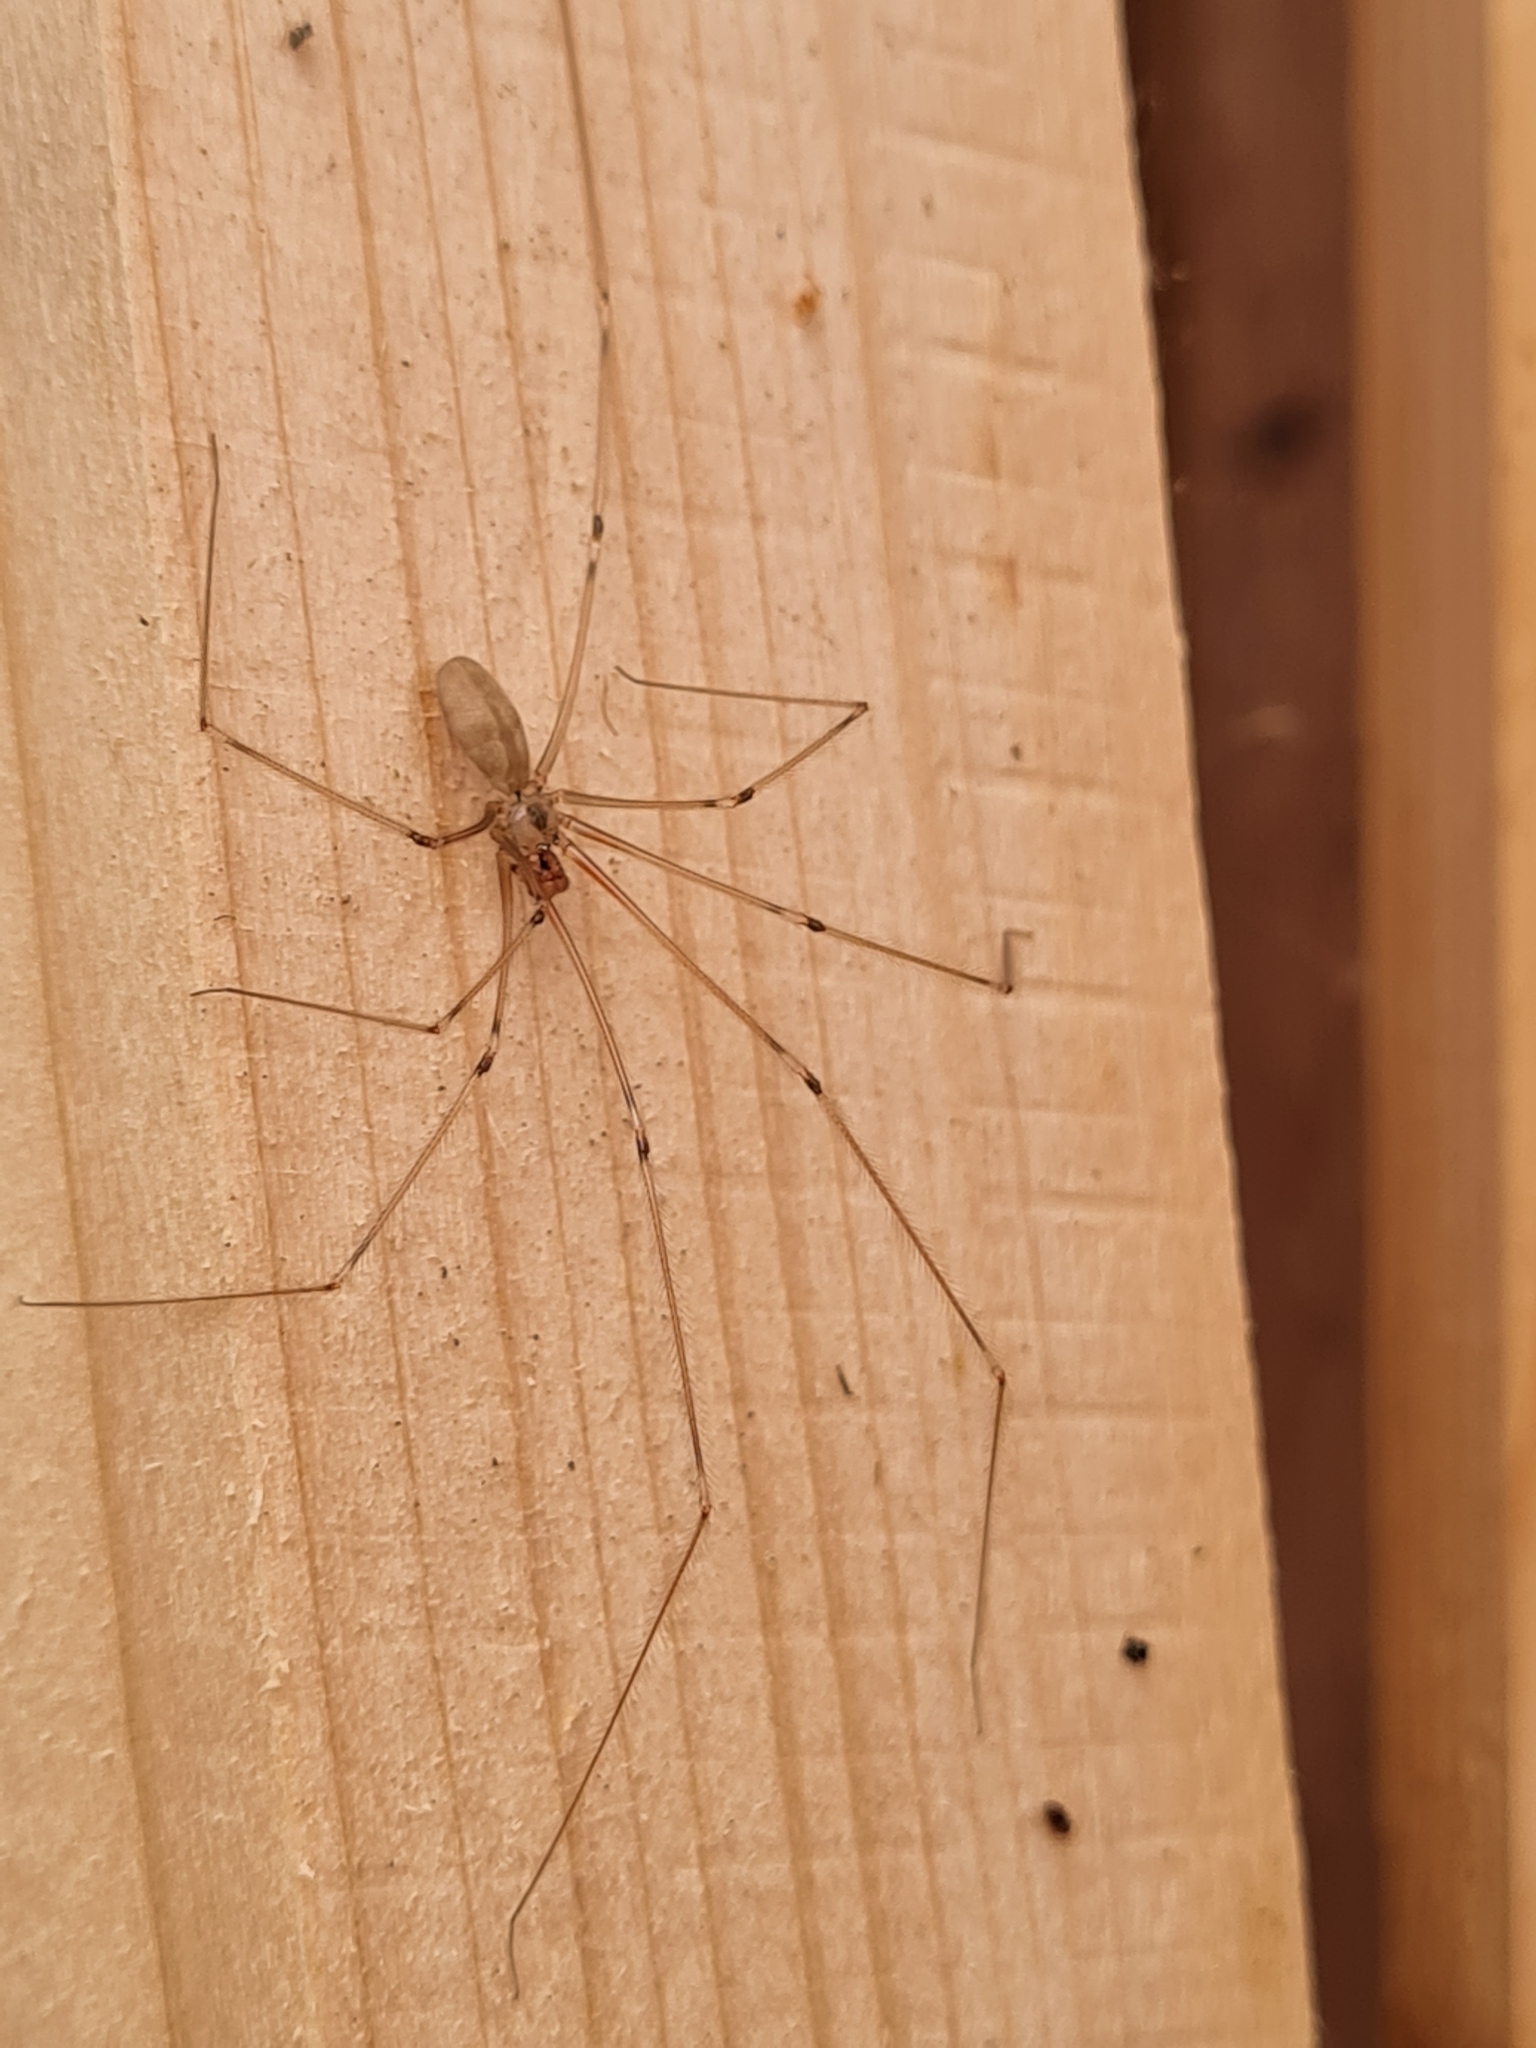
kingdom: Animalia
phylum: Arthropoda
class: Arachnida
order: Araneae
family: Pholcidae
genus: Pholcus
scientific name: Pholcus phalangioides
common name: Longbodied cellar spider
